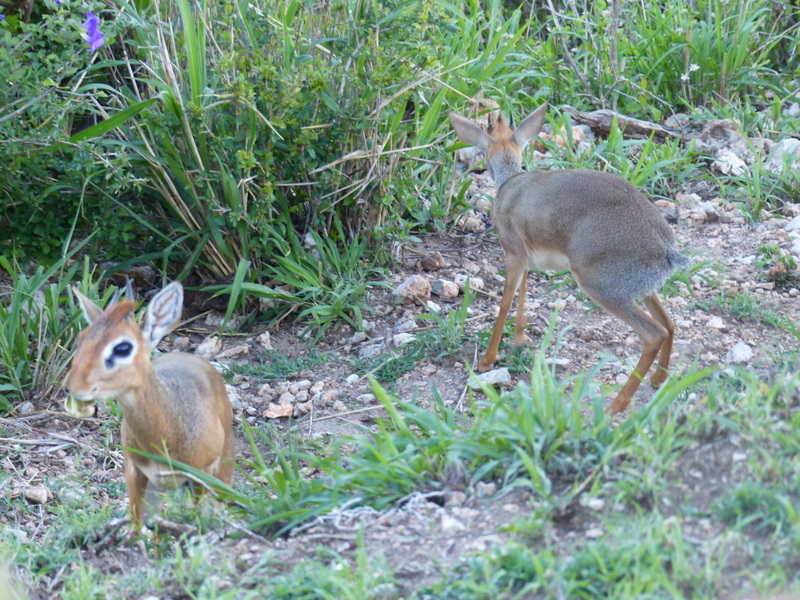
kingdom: Animalia
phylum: Chordata
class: Mammalia
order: Artiodactyla
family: Bovidae
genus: Madoqua
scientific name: Madoqua
